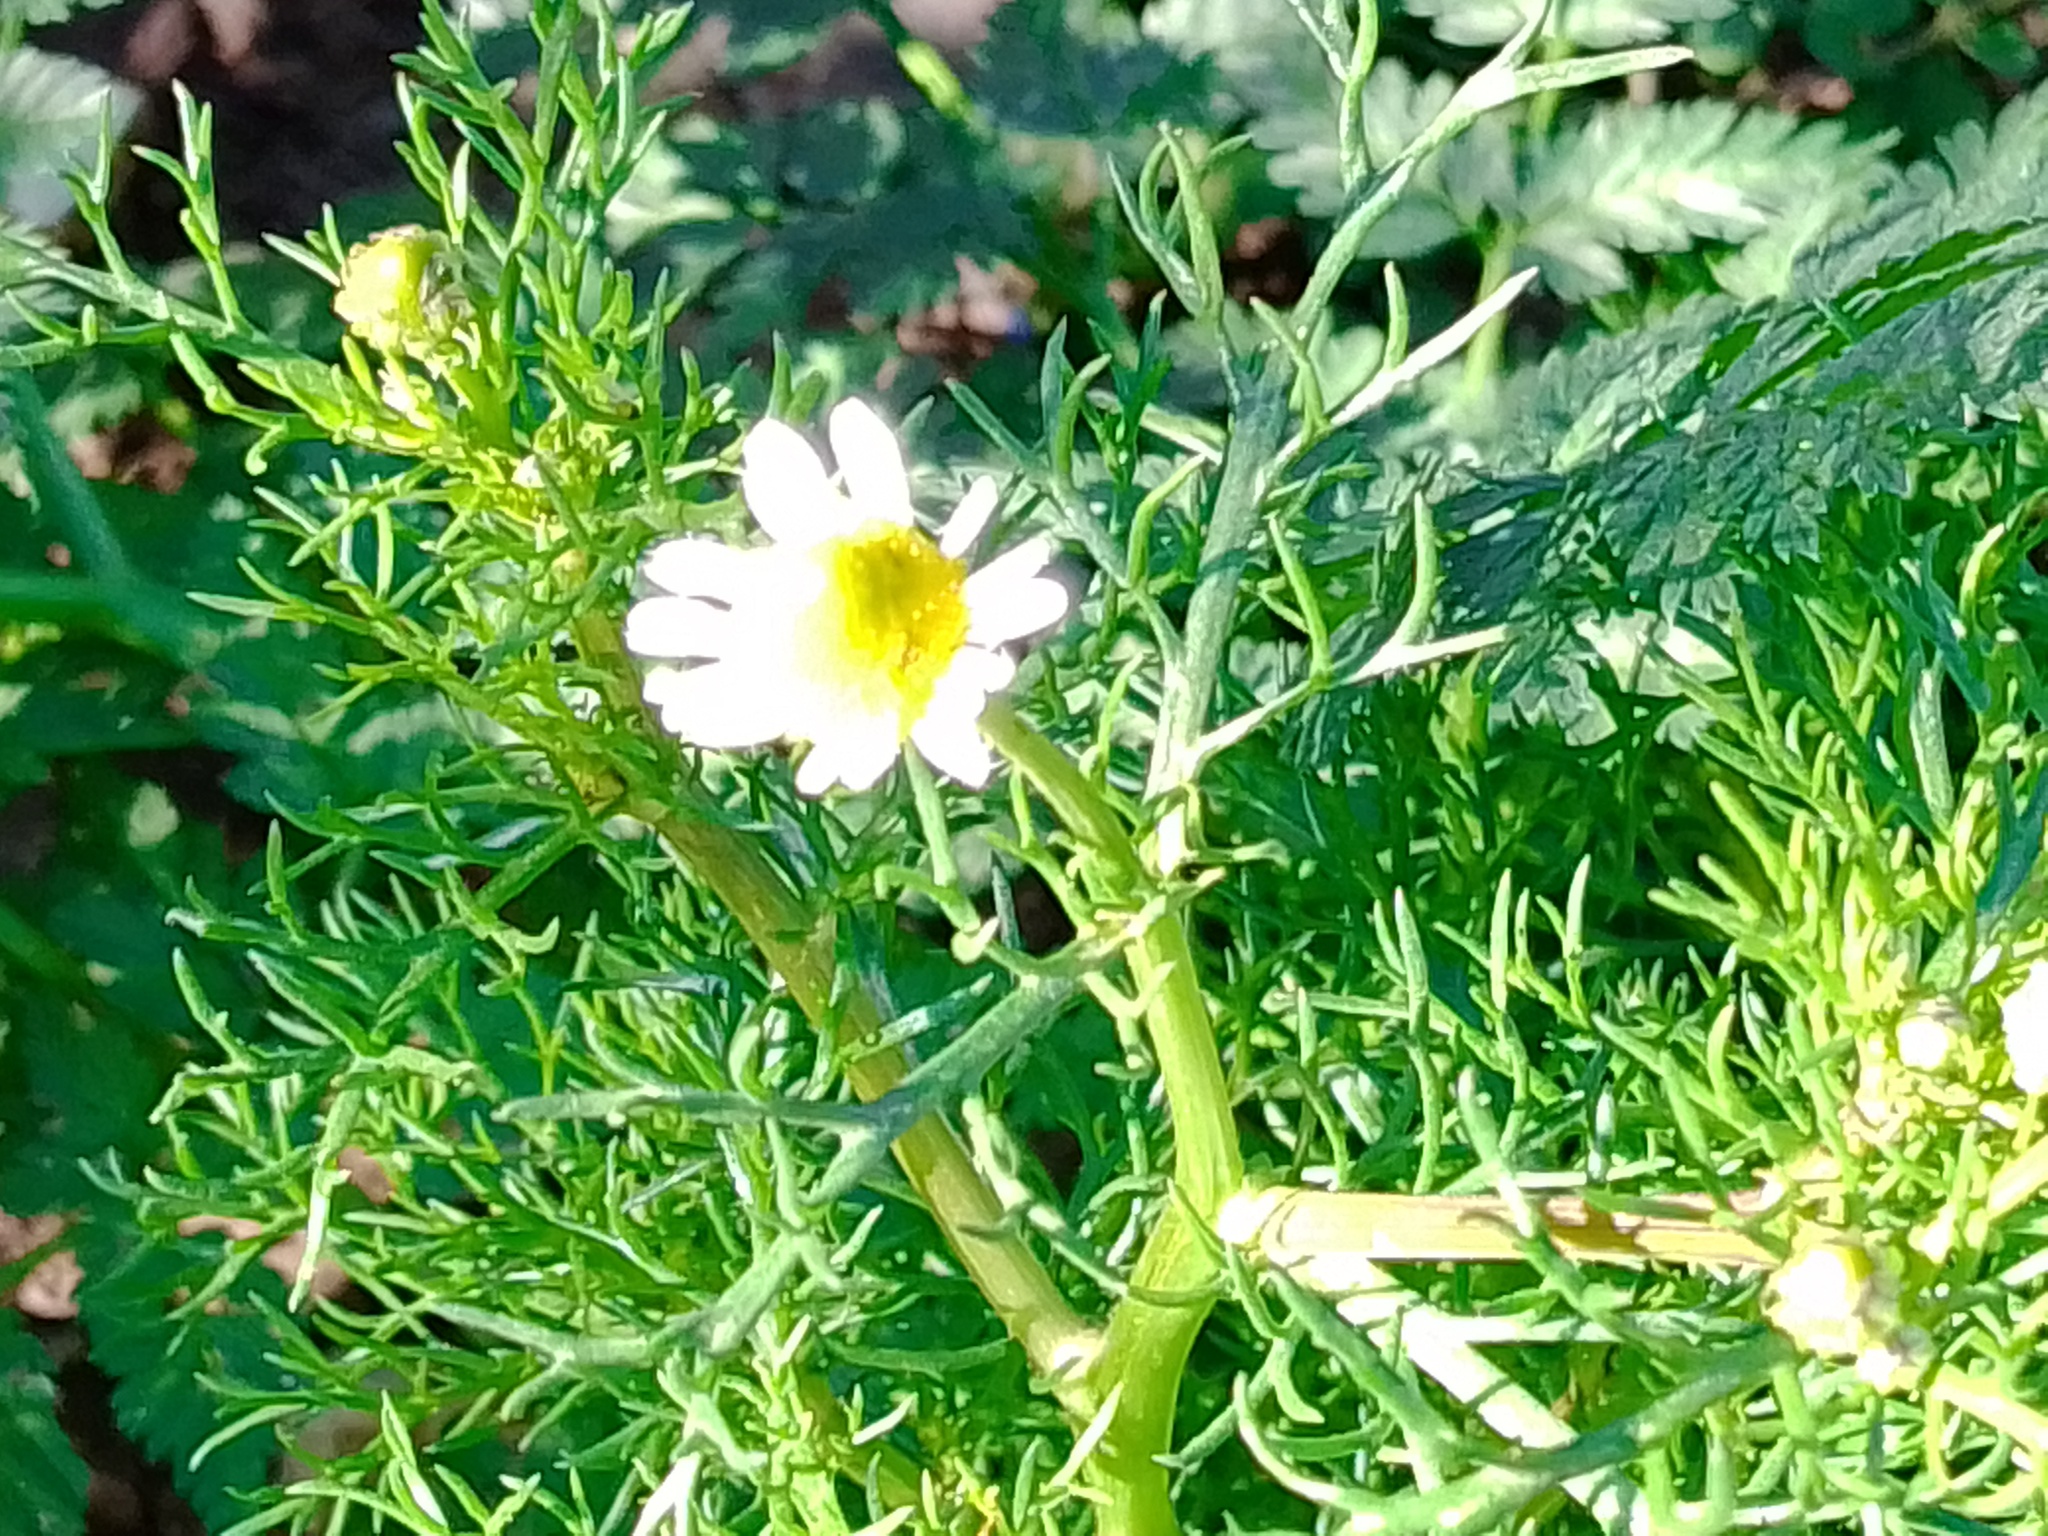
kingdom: Plantae
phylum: Tracheophyta
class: Magnoliopsida
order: Asterales
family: Asteraceae
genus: Matricaria
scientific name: Matricaria chamomilla
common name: Scented mayweed
